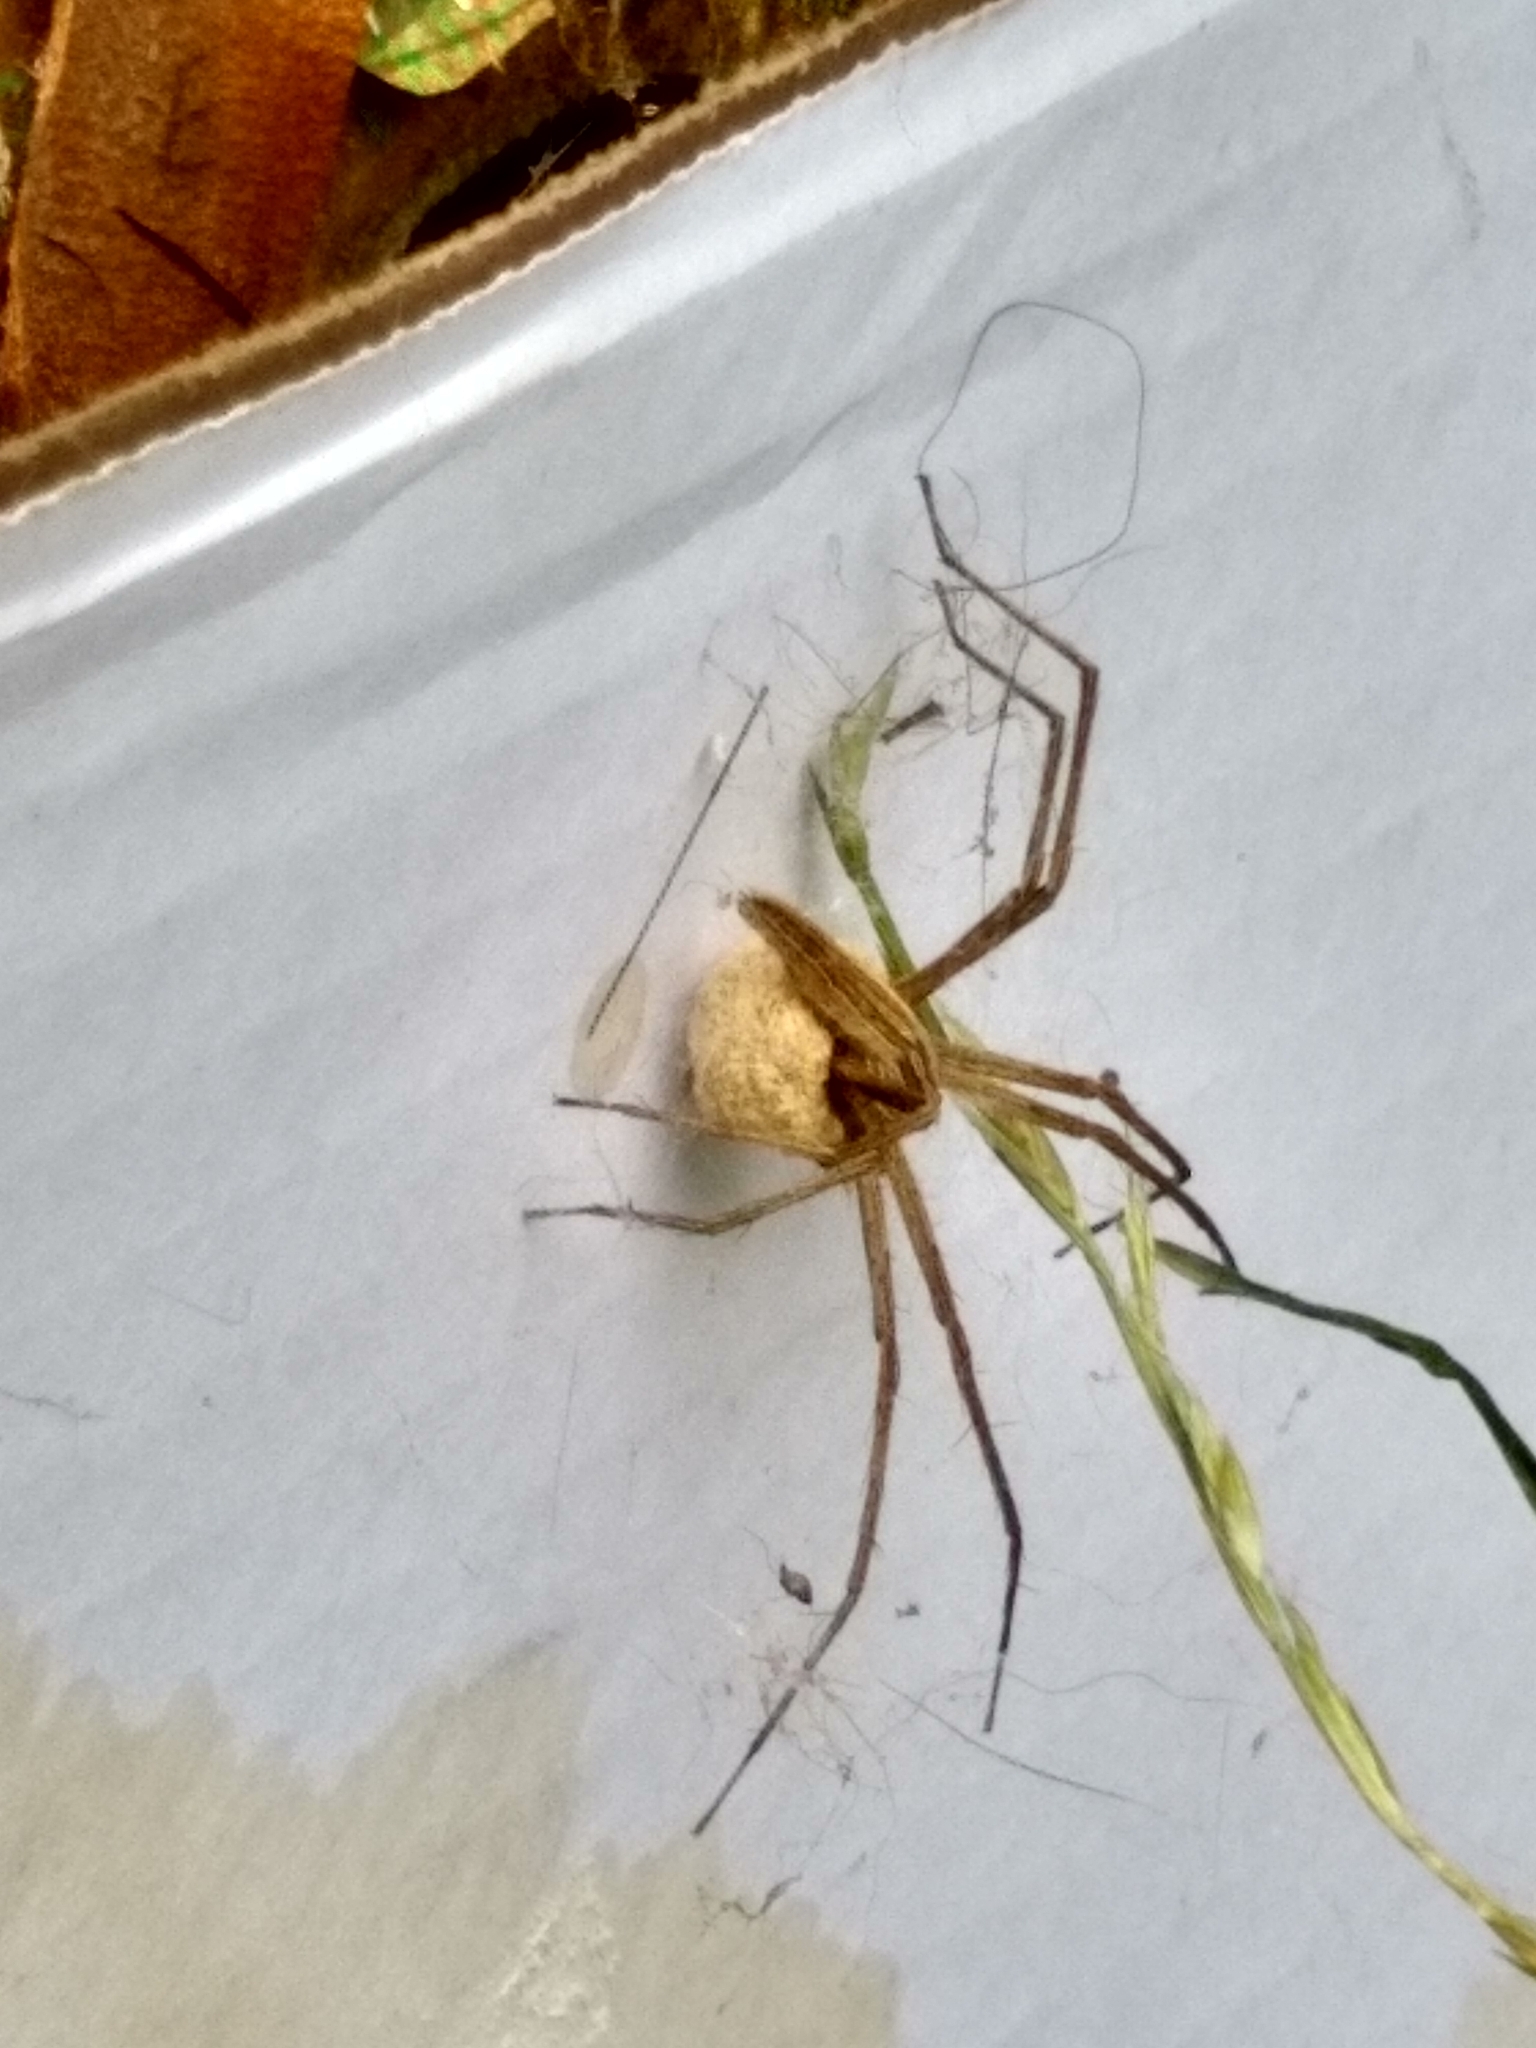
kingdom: Animalia
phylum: Arthropoda
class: Arachnida
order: Araneae
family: Pisauridae
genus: Pisaurina
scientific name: Pisaurina dubia
